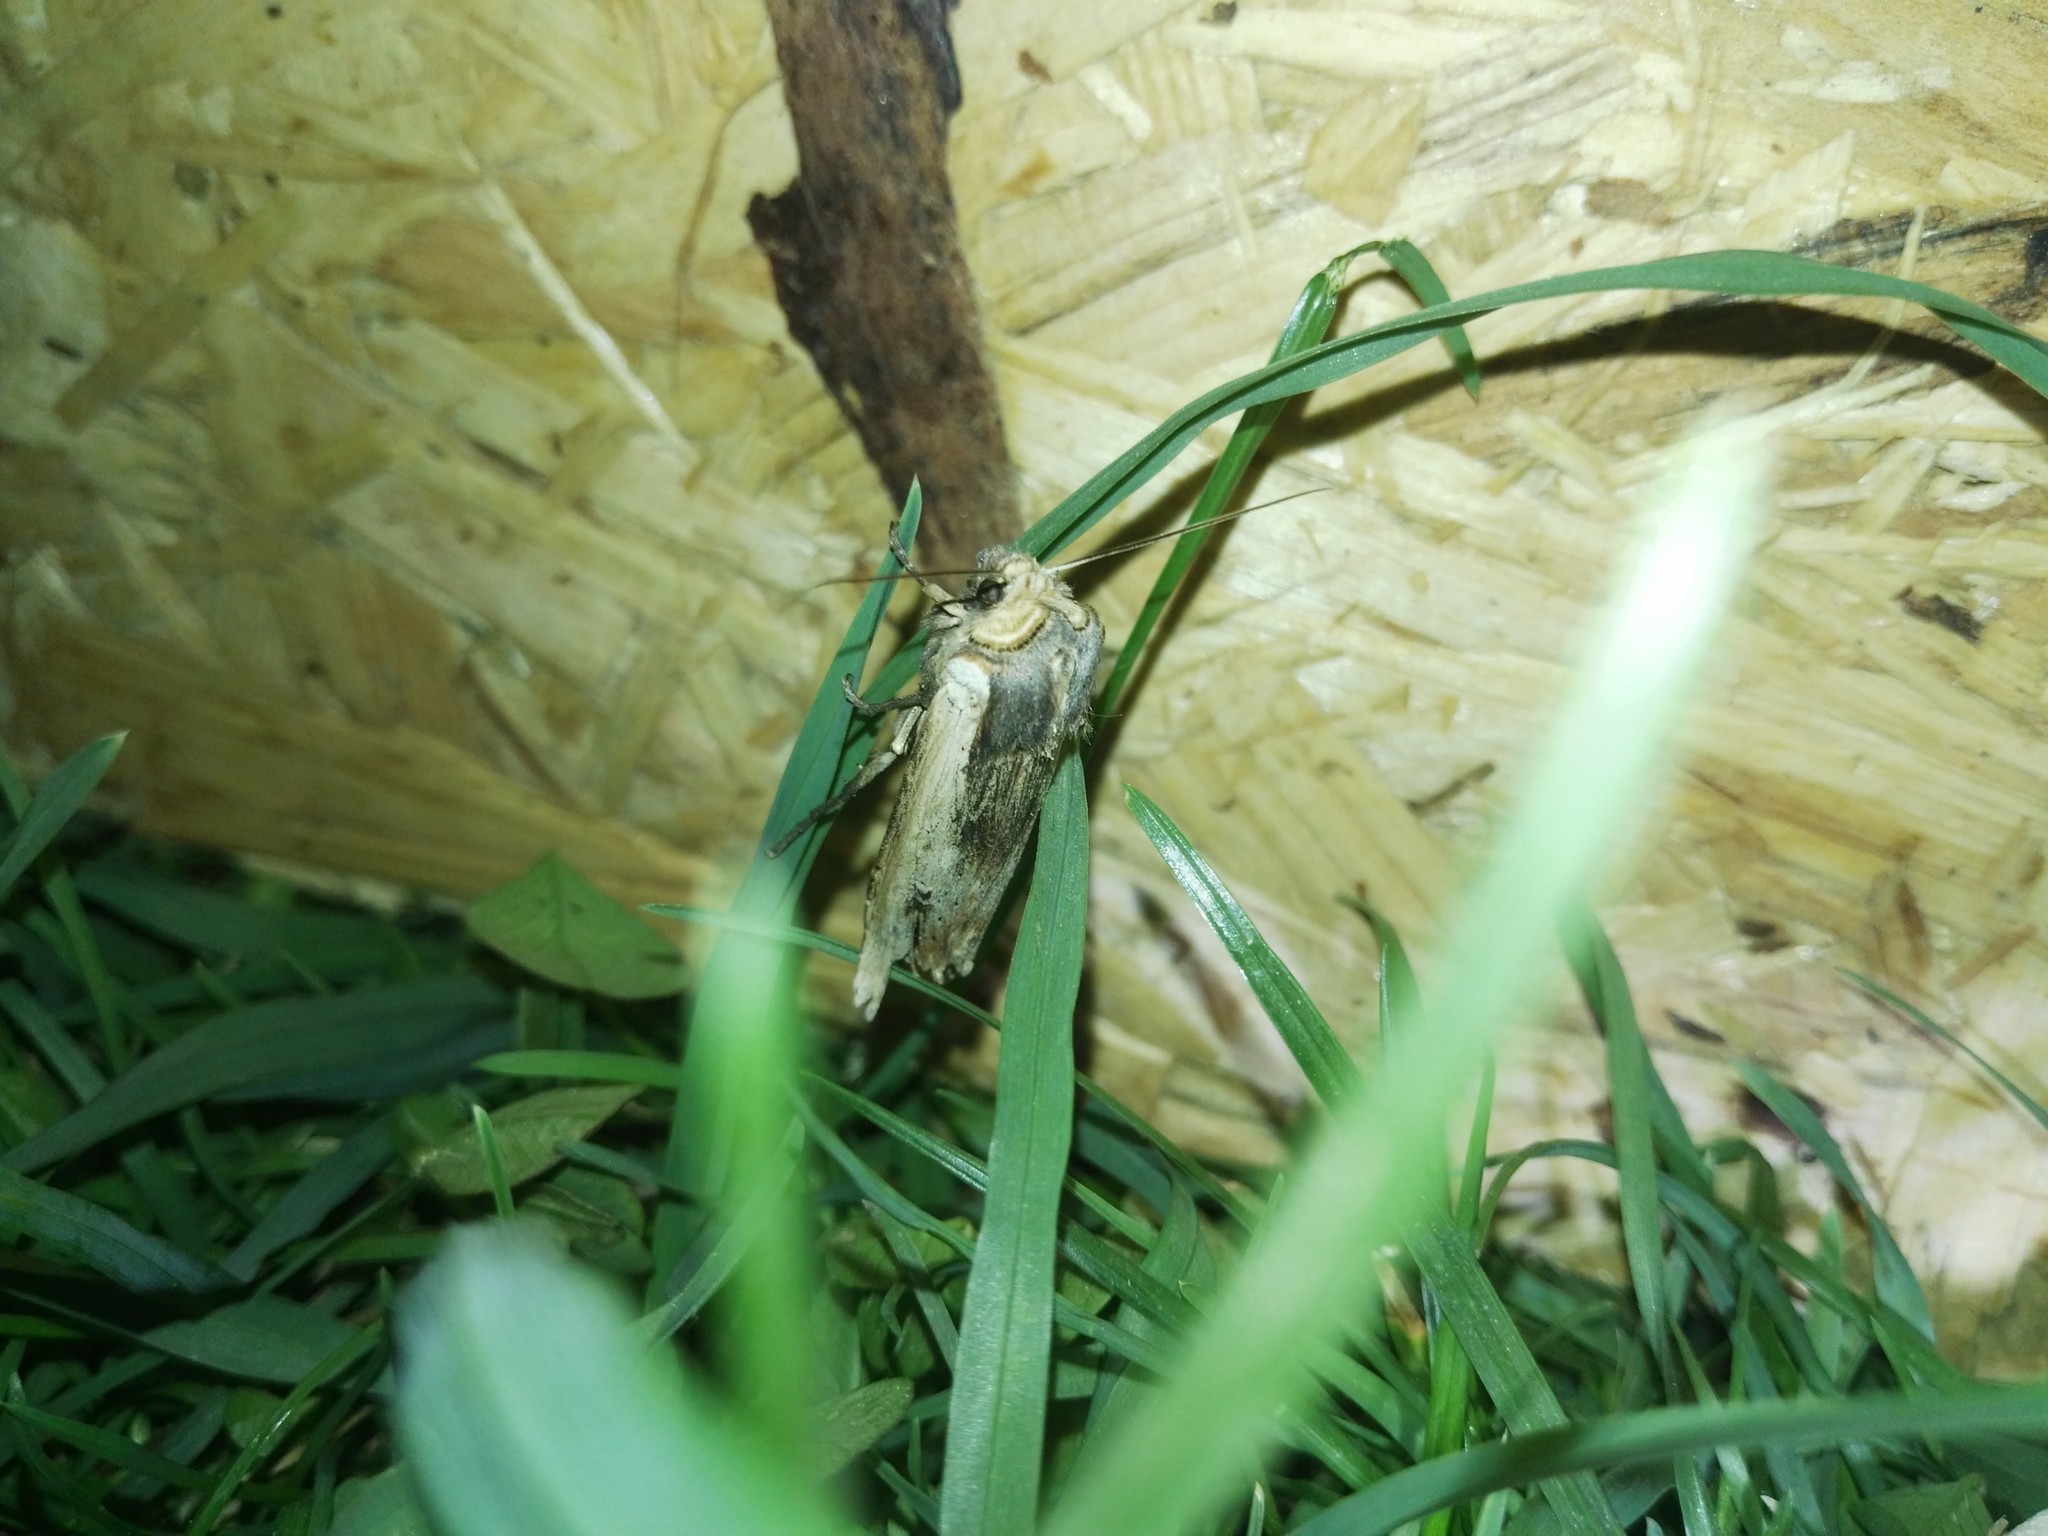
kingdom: Animalia
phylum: Arthropoda
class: Insecta
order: Lepidoptera
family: Noctuidae
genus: Xylena
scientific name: Xylena vetusta
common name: Red sword-grass
